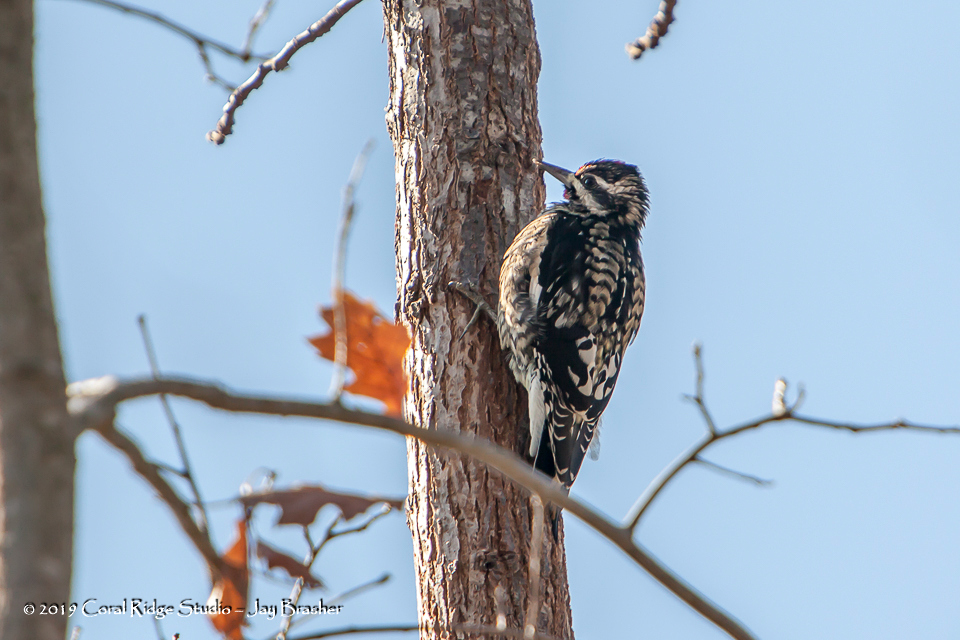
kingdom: Animalia
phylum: Chordata
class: Aves
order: Piciformes
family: Picidae
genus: Sphyrapicus
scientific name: Sphyrapicus varius
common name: Yellow-bellied sapsucker
